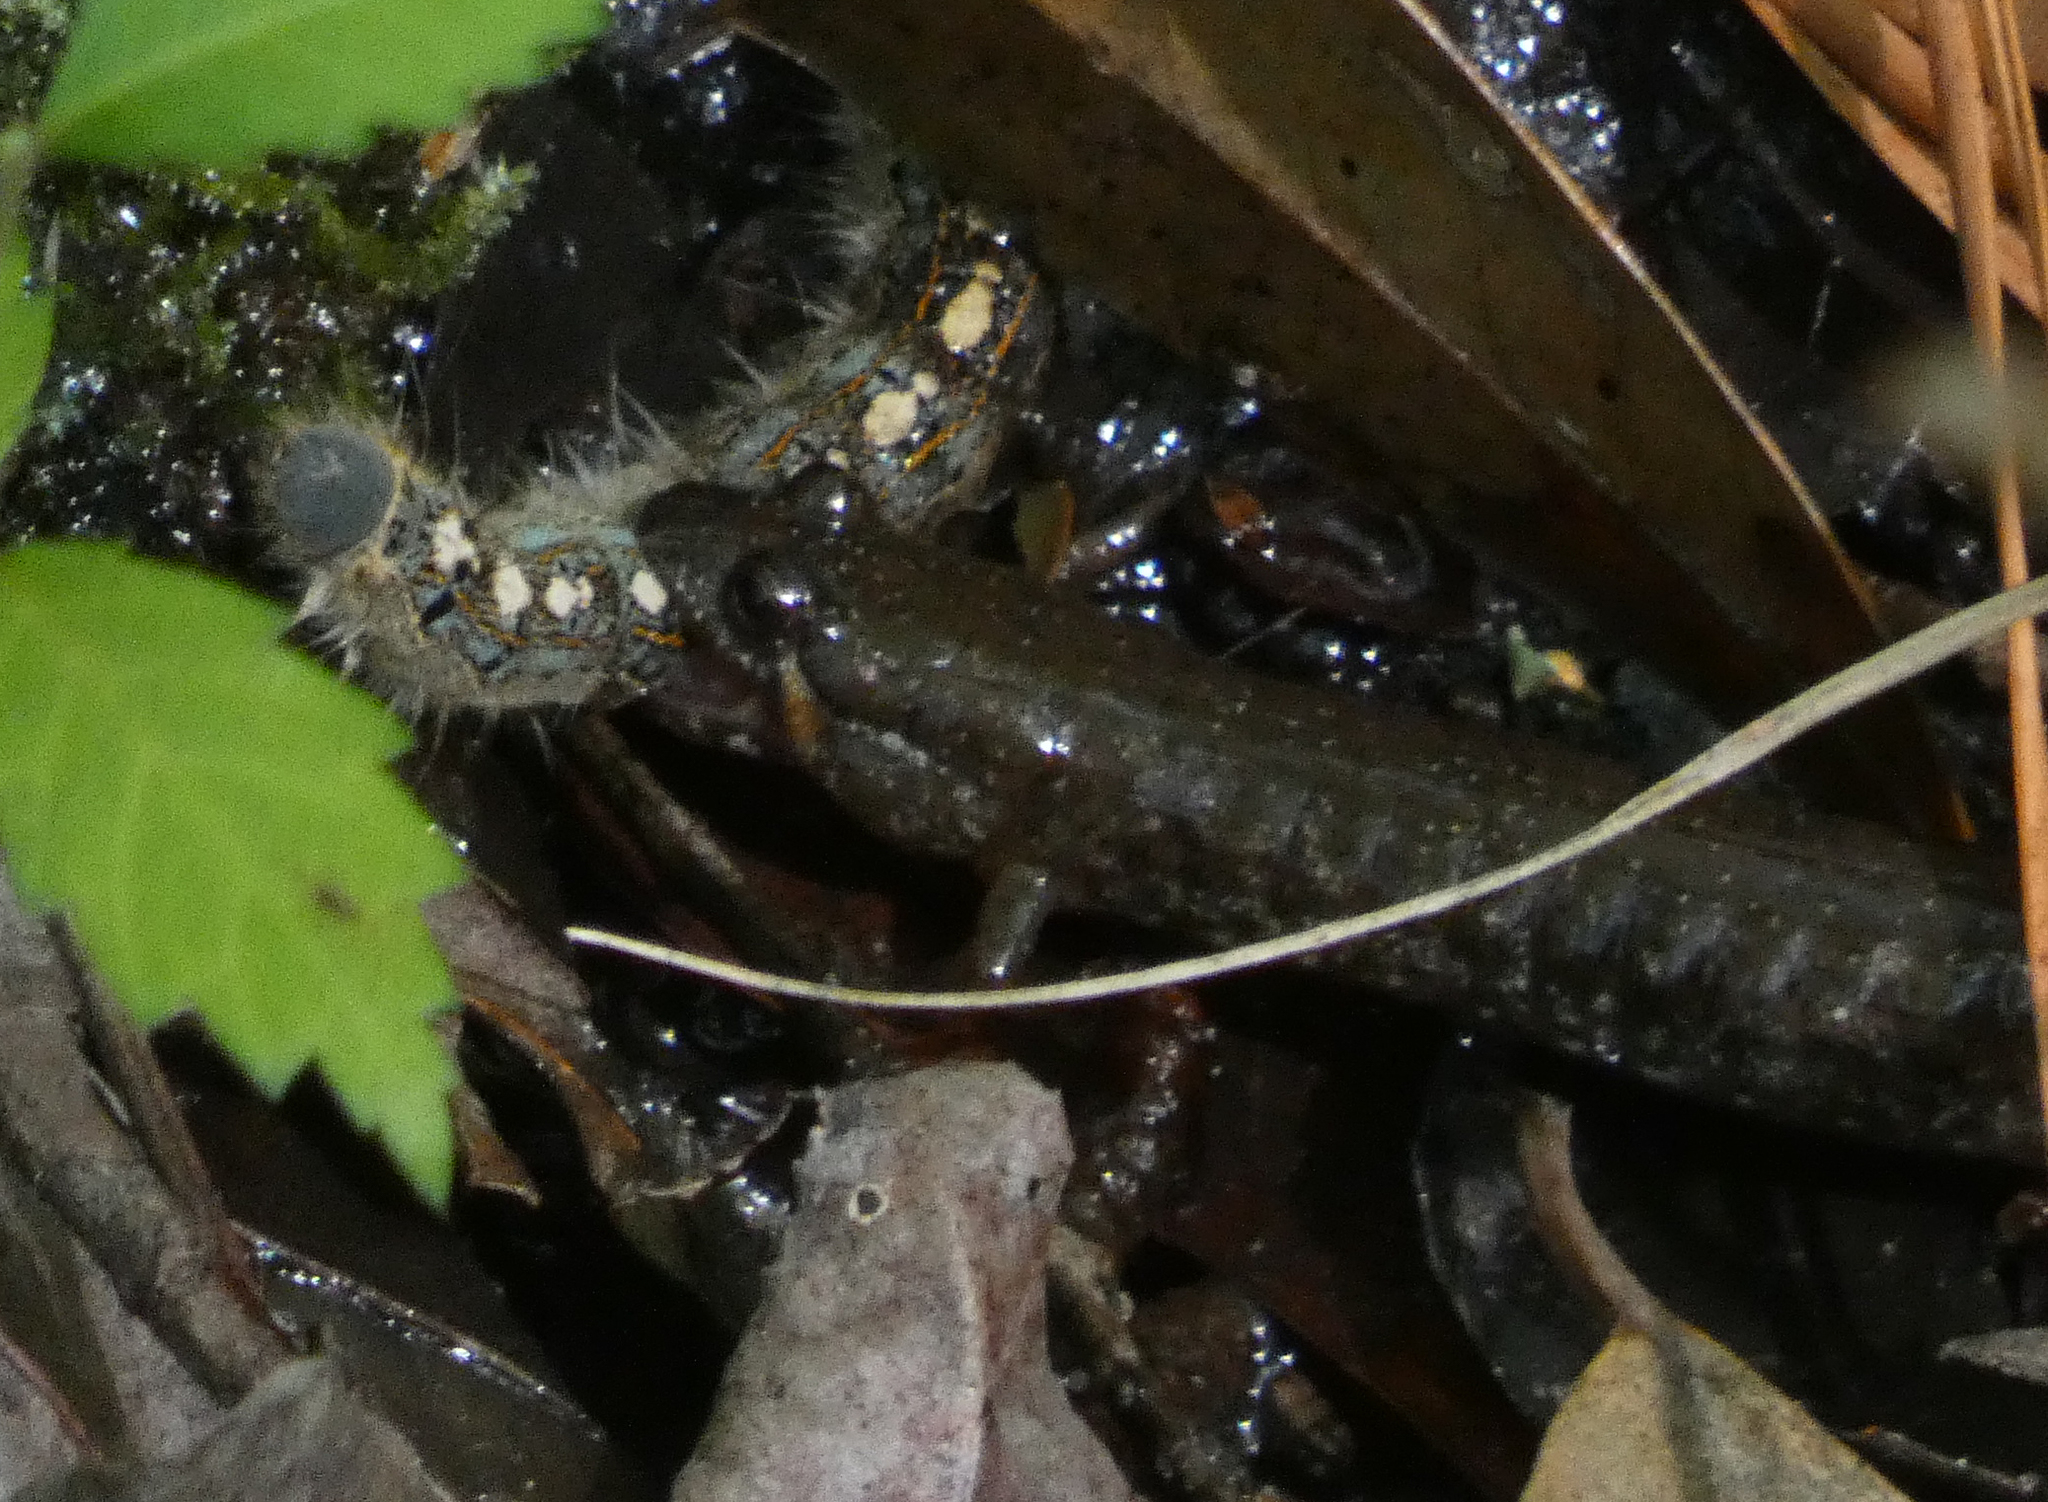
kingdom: Animalia
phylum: Chordata
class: Amphibia
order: Caudata
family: Plethodontidae
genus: Desmognathus
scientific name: Desmognathus valtos
